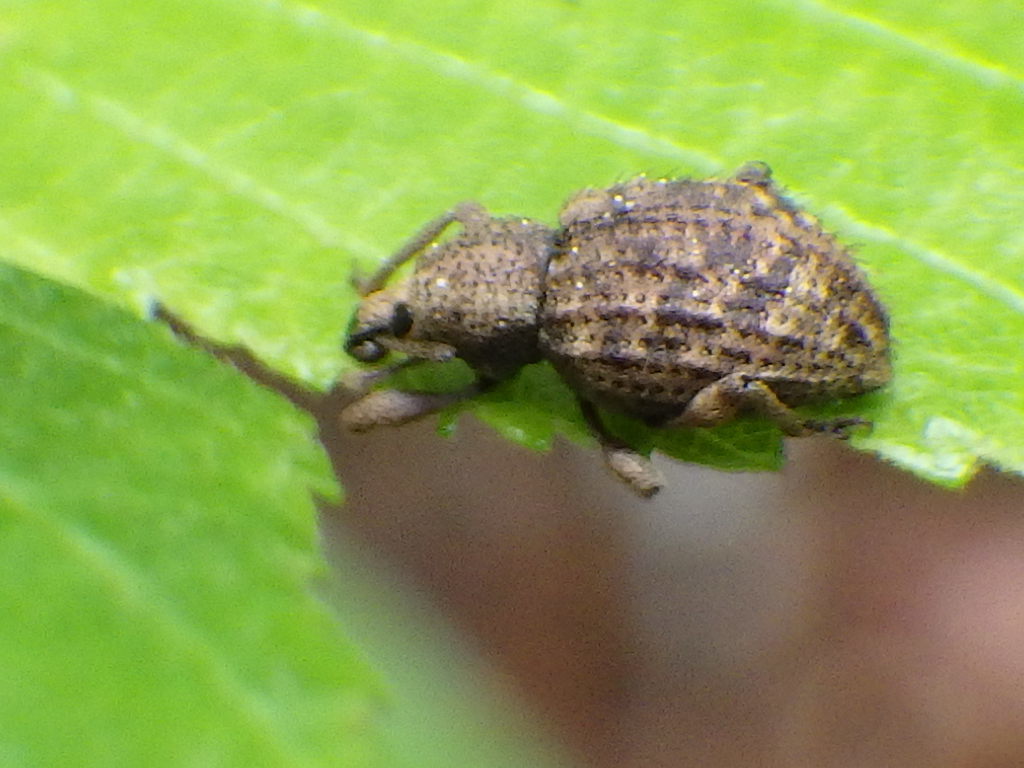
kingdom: Animalia
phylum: Arthropoda
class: Insecta
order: Coleoptera
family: Curculionidae
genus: Otiorhynchus
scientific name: Otiorhynchus carinatopunctatus
